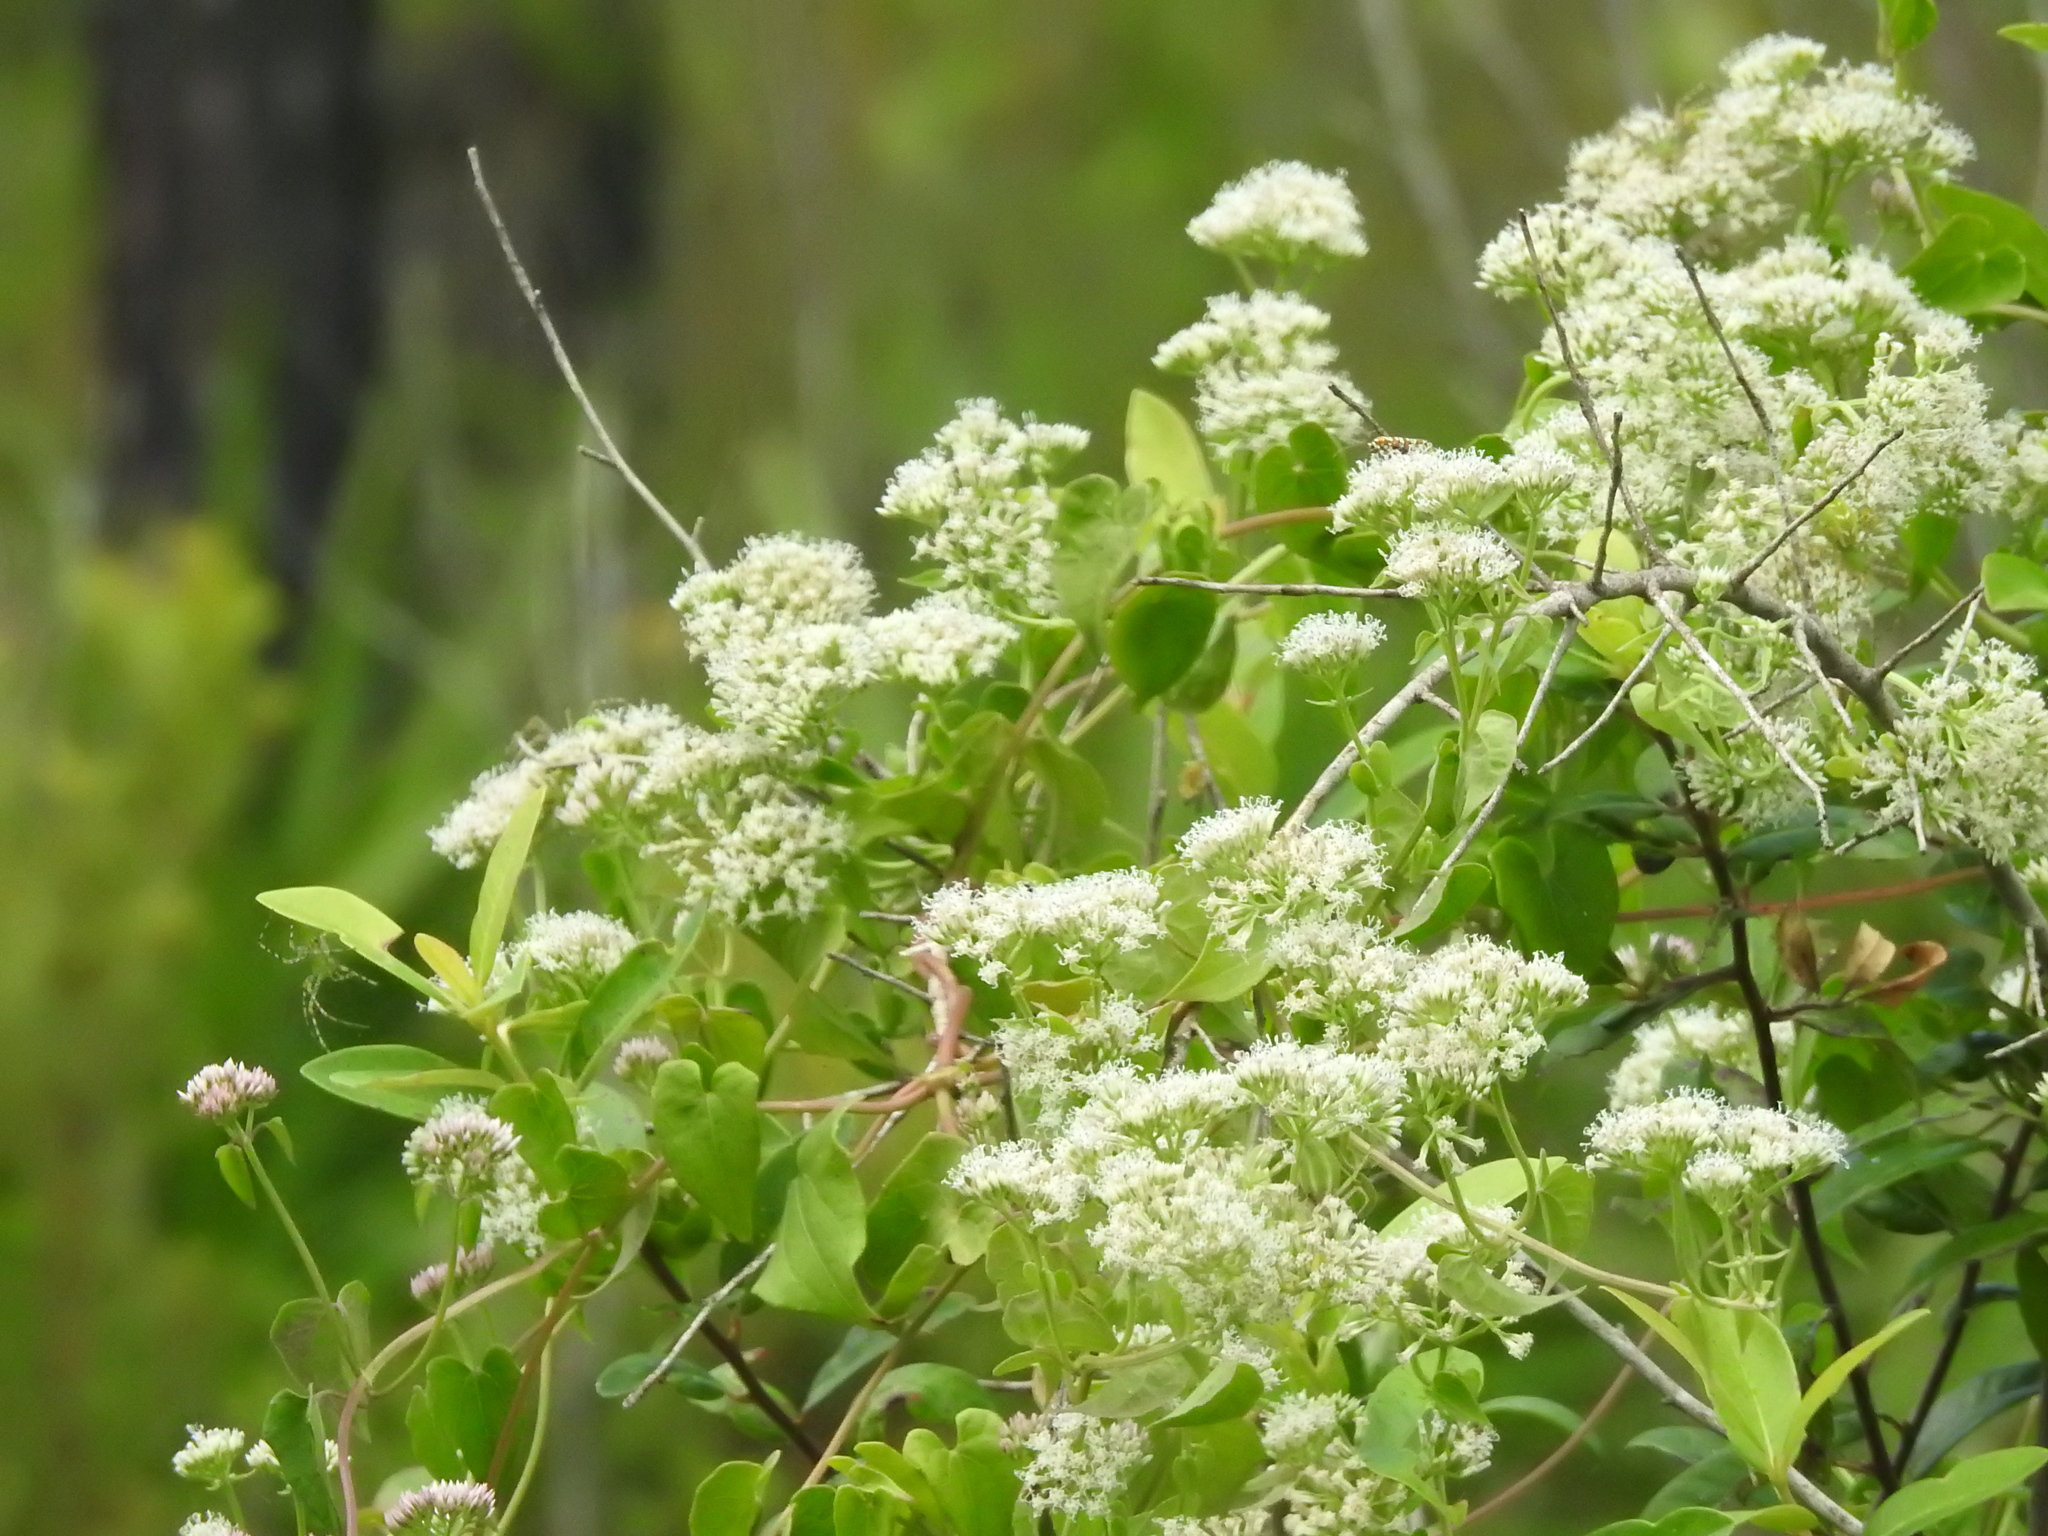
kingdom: Plantae
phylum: Tracheophyta
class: Magnoliopsida
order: Asterales
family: Asteraceae
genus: Mikania
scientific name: Mikania scandens
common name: Climbing hempvine
